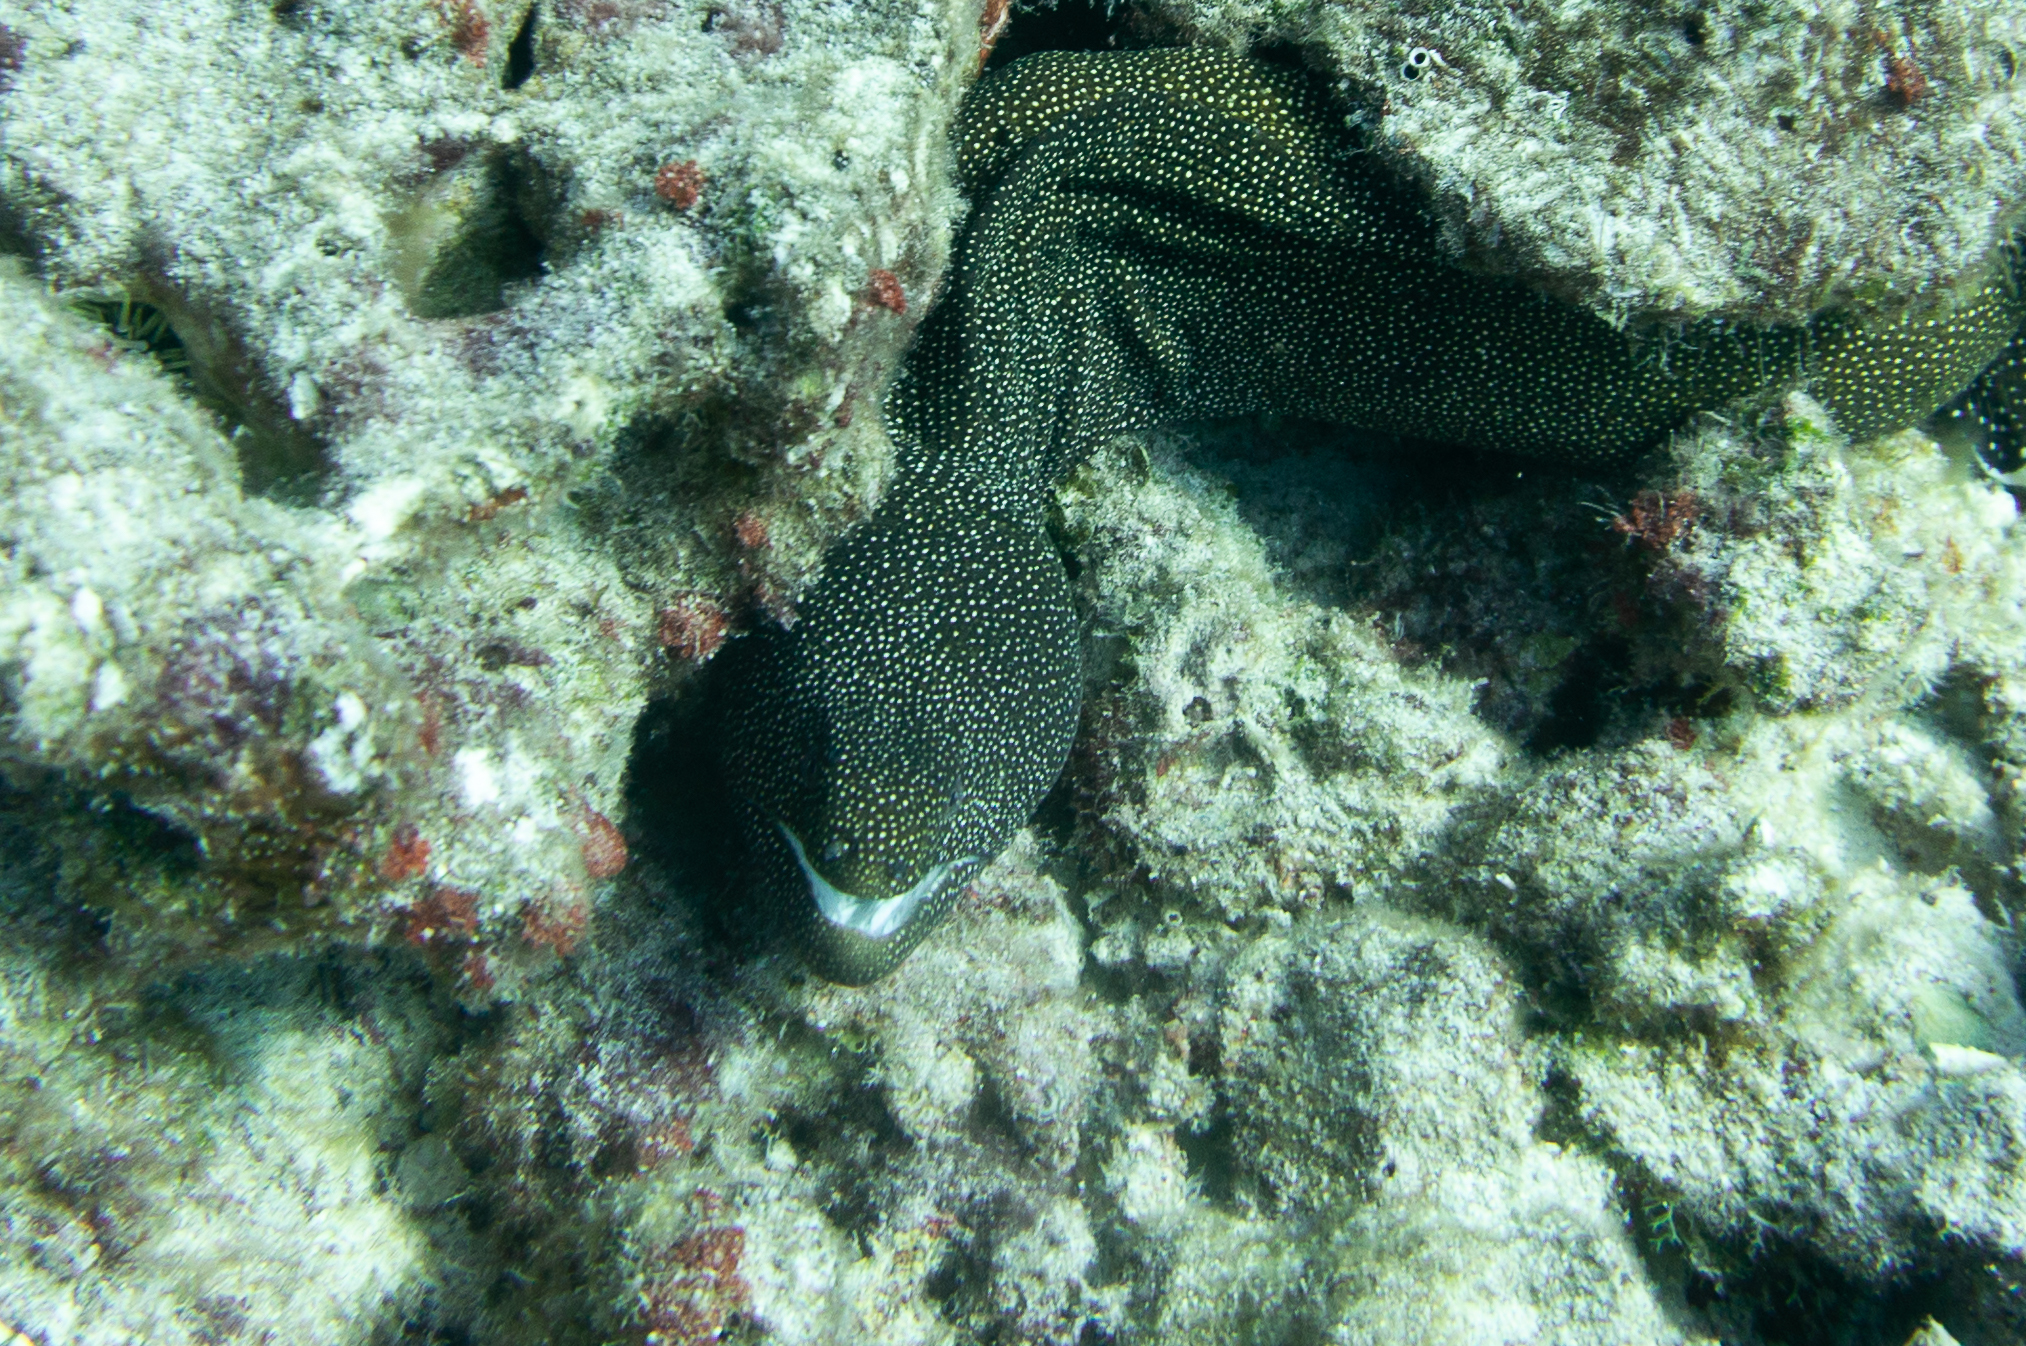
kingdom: Animalia
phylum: Chordata
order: Anguilliformes
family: Muraenidae
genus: Gymnothorax
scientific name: Gymnothorax meleagris
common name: Guineafowl moray
